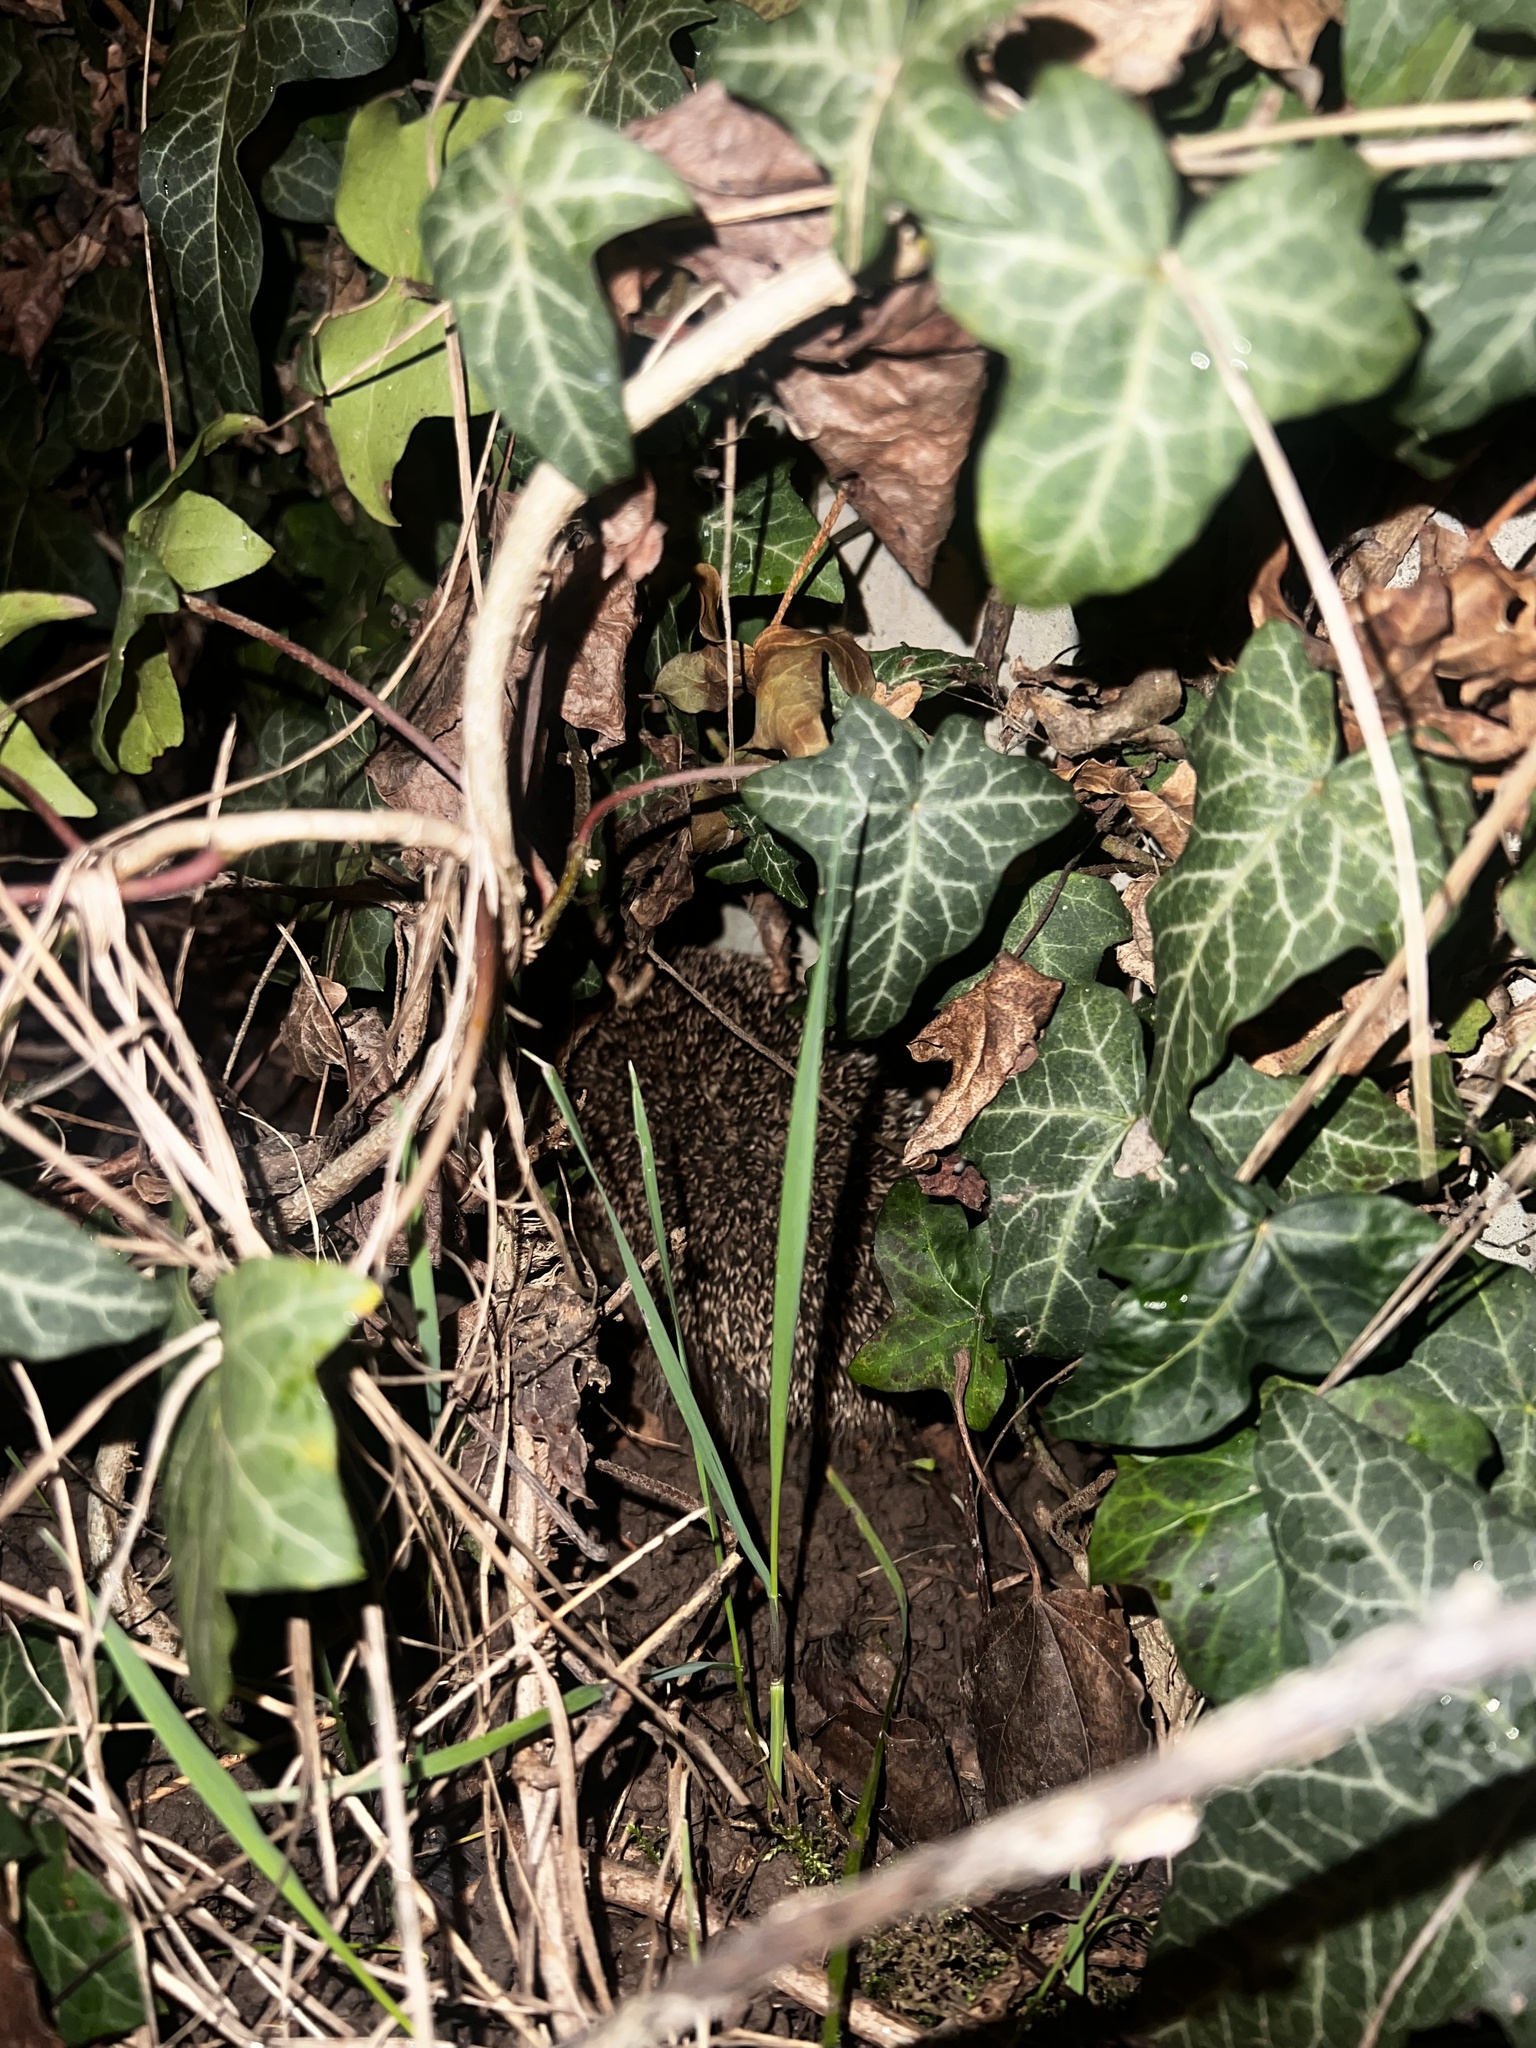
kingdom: Animalia
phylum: Chordata
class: Mammalia
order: Erinaceomorpha
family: Erinaceidae
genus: Erinaceus
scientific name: Erinaceus europaeus
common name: West european hedgehog
